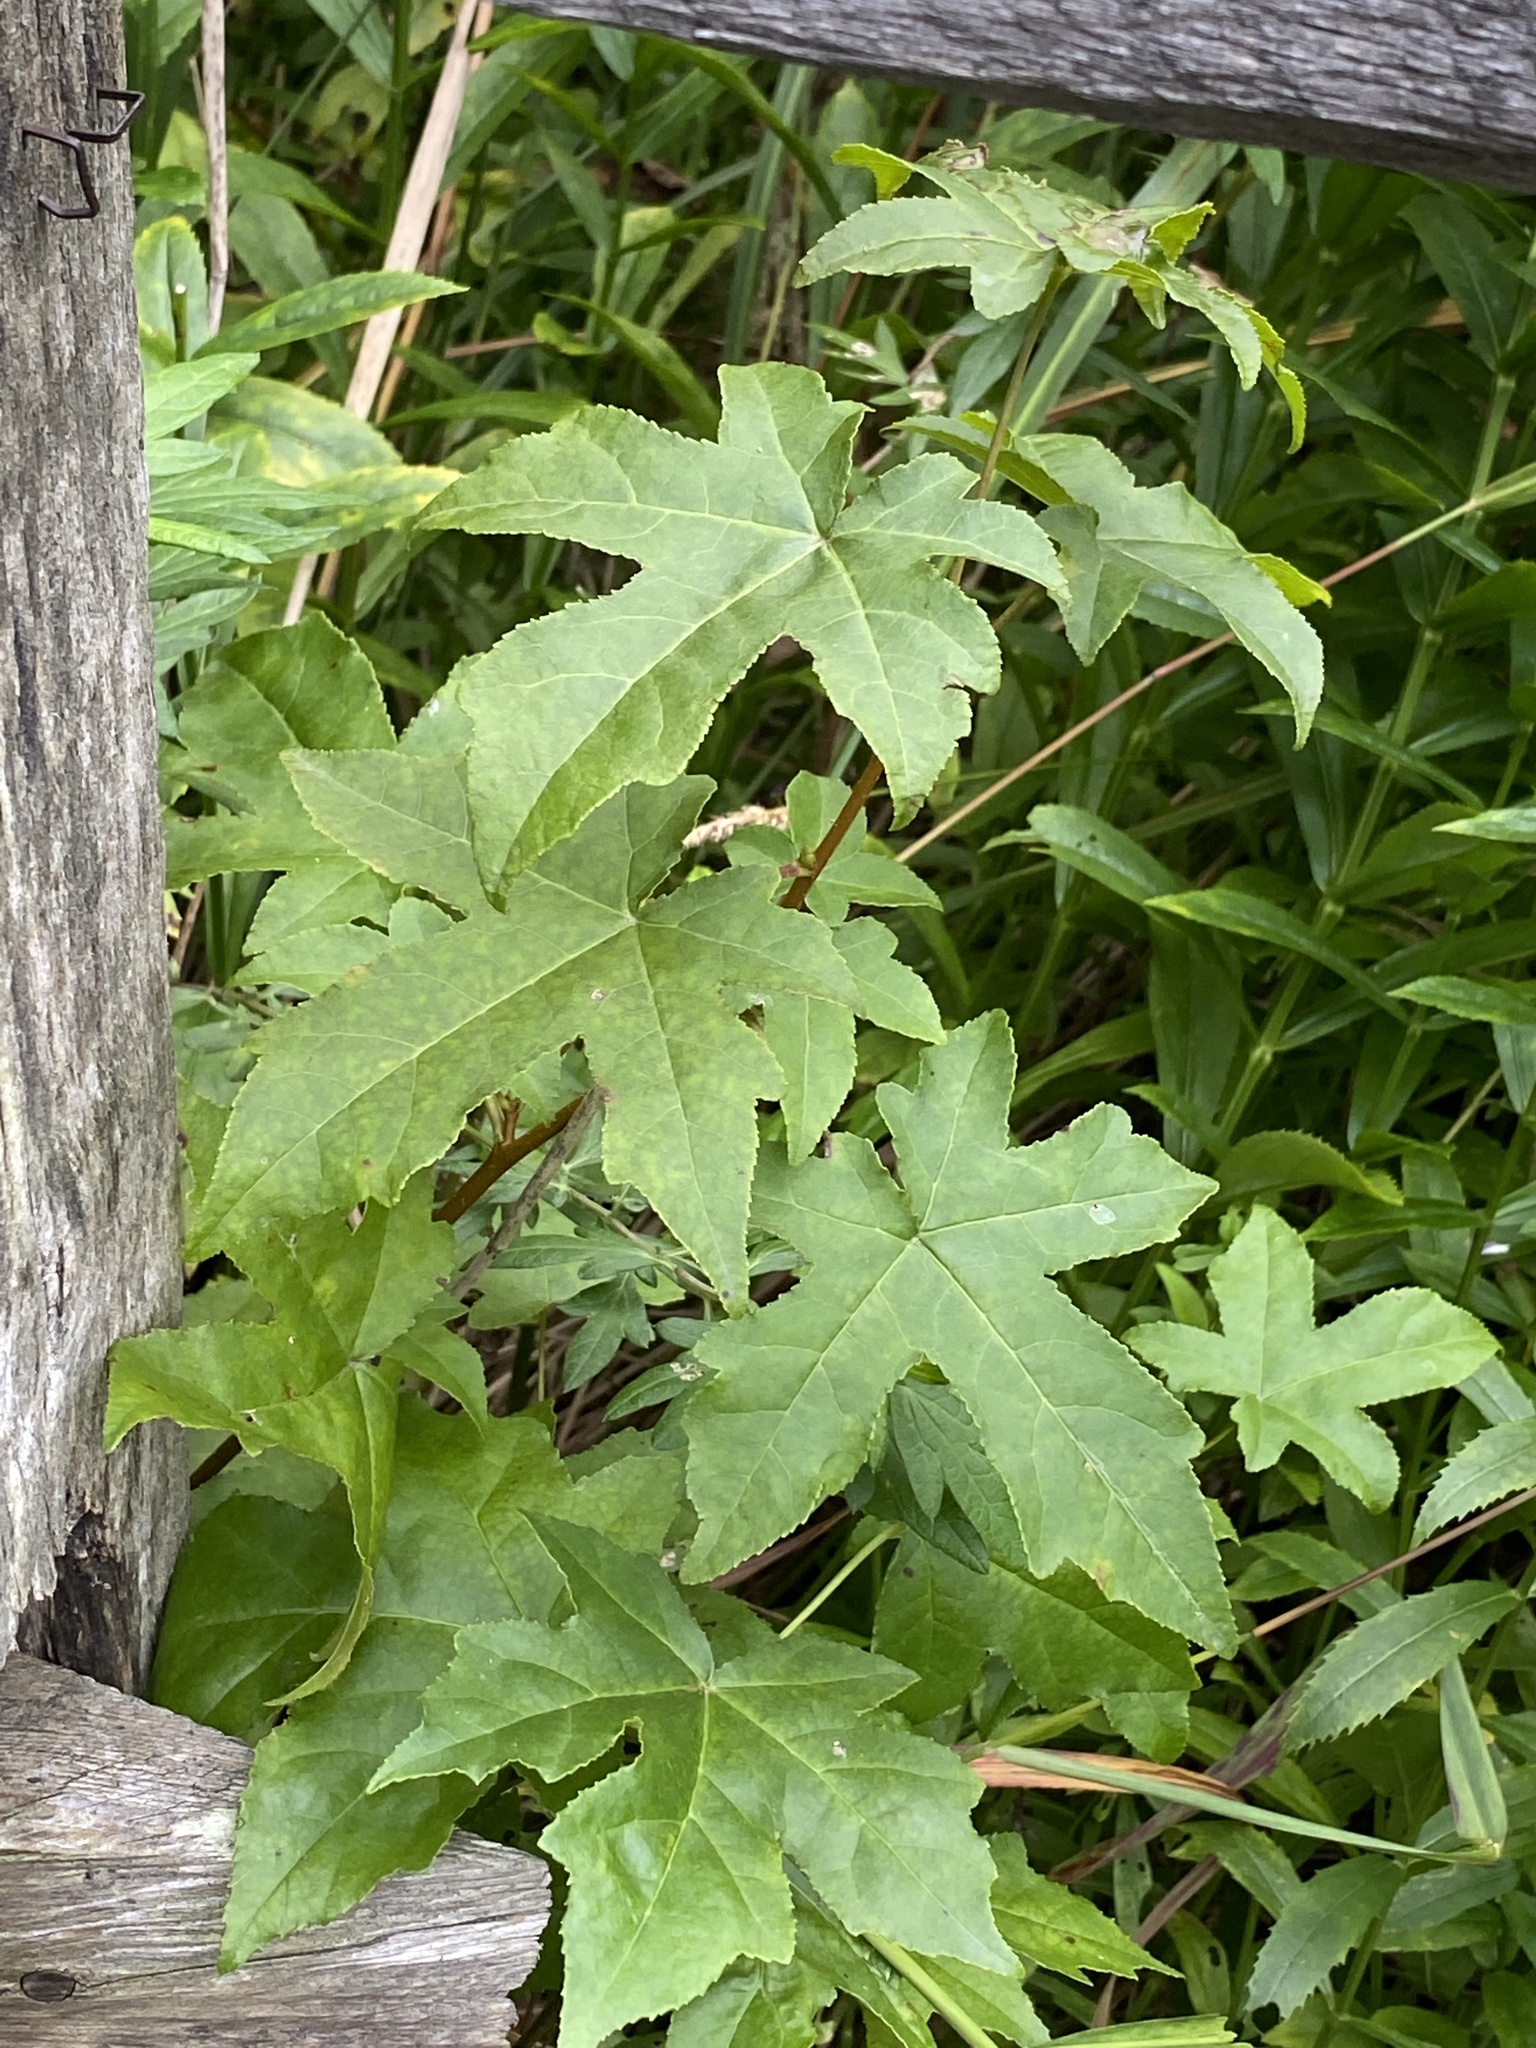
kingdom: Plantae
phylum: Tracheophyta
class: Magnoliopsida
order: Saxifragales
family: Altingiaceae
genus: Liquidambar
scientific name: Liquidambar styraciflua
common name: Sweet gum
